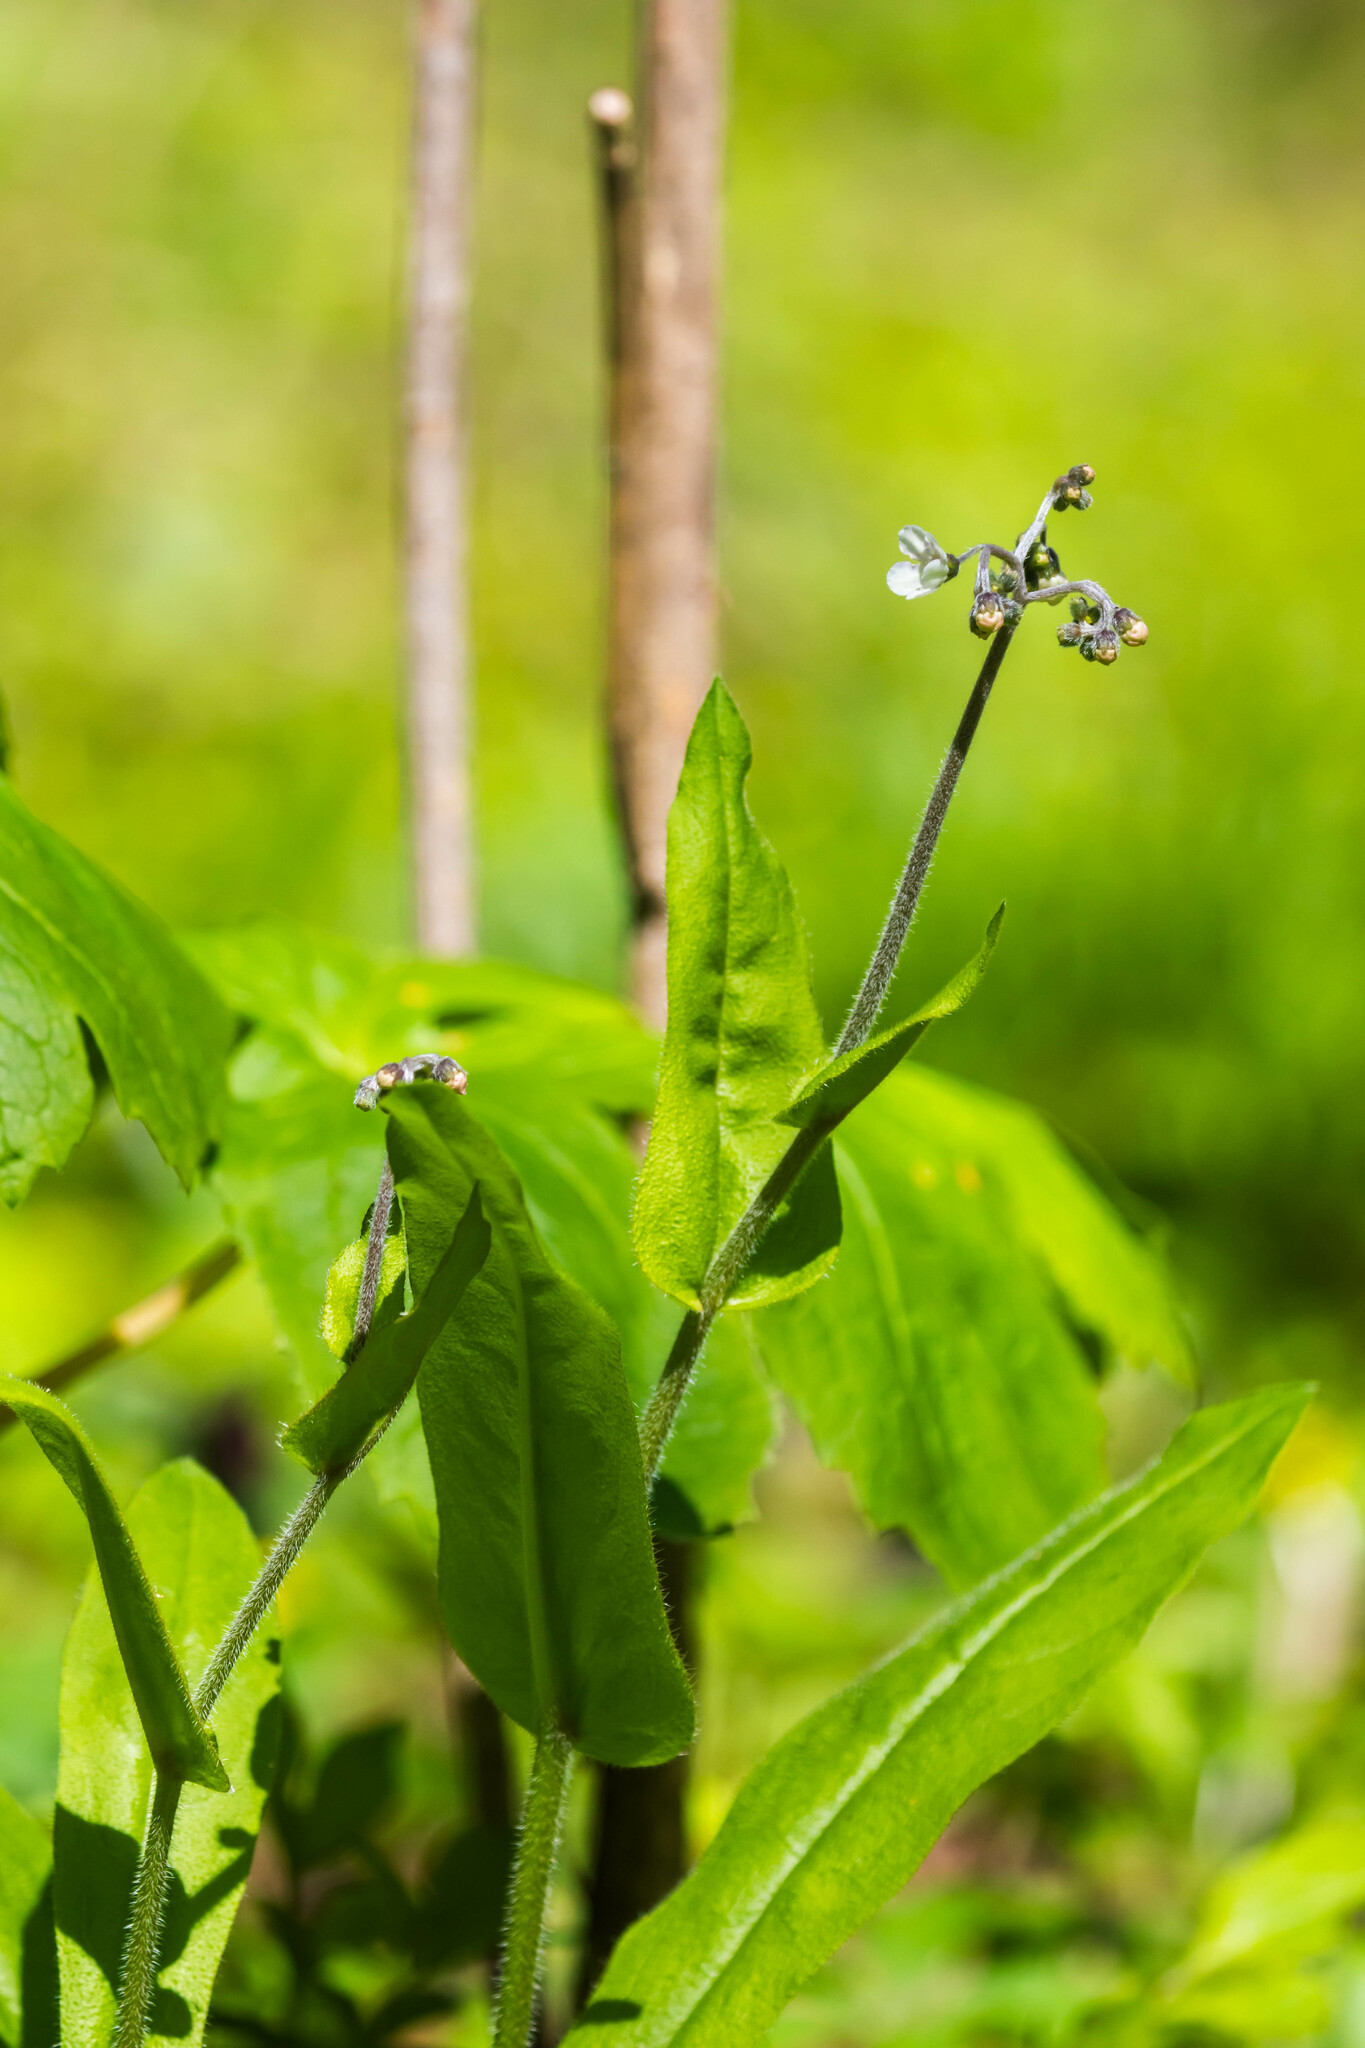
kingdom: Plantae
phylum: Tracheophyta
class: Magnoliopsida
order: Boraginales
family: Boraginaceae
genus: Andersonglossum
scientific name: Andersonglossum virginianum
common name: Wild comfrey
